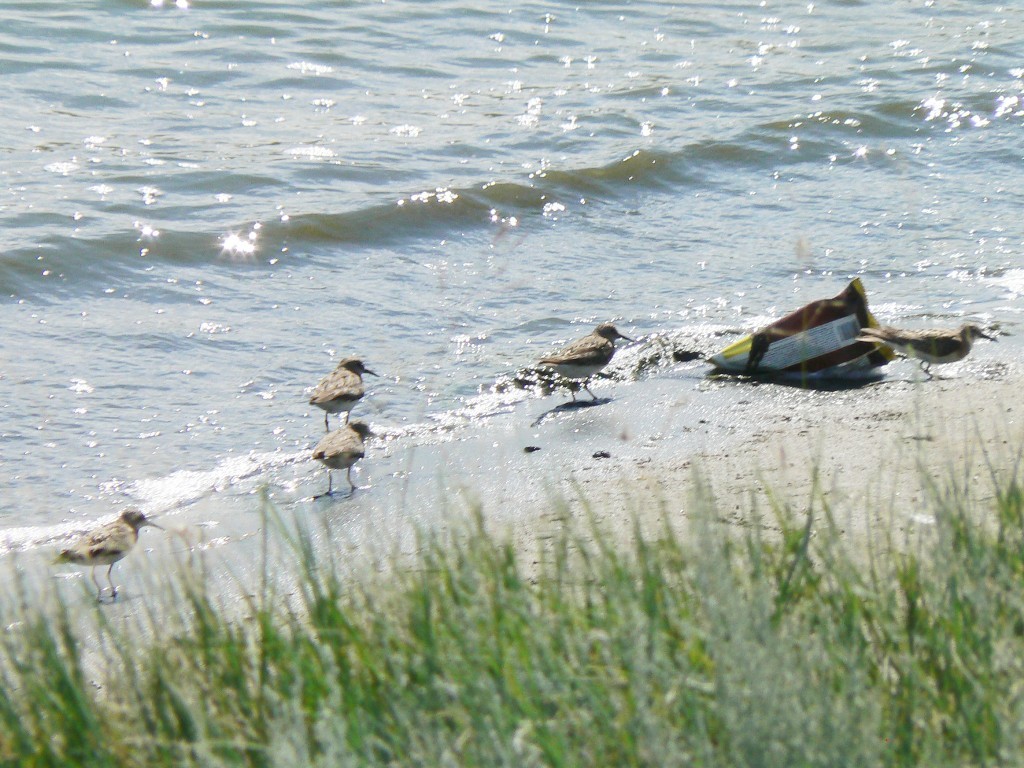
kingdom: Animalia
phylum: Chordata
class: Aves
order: Charadriiformes
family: Scolopacidae
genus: Calidris
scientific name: Calidris temminckii
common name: Temminck's stint
